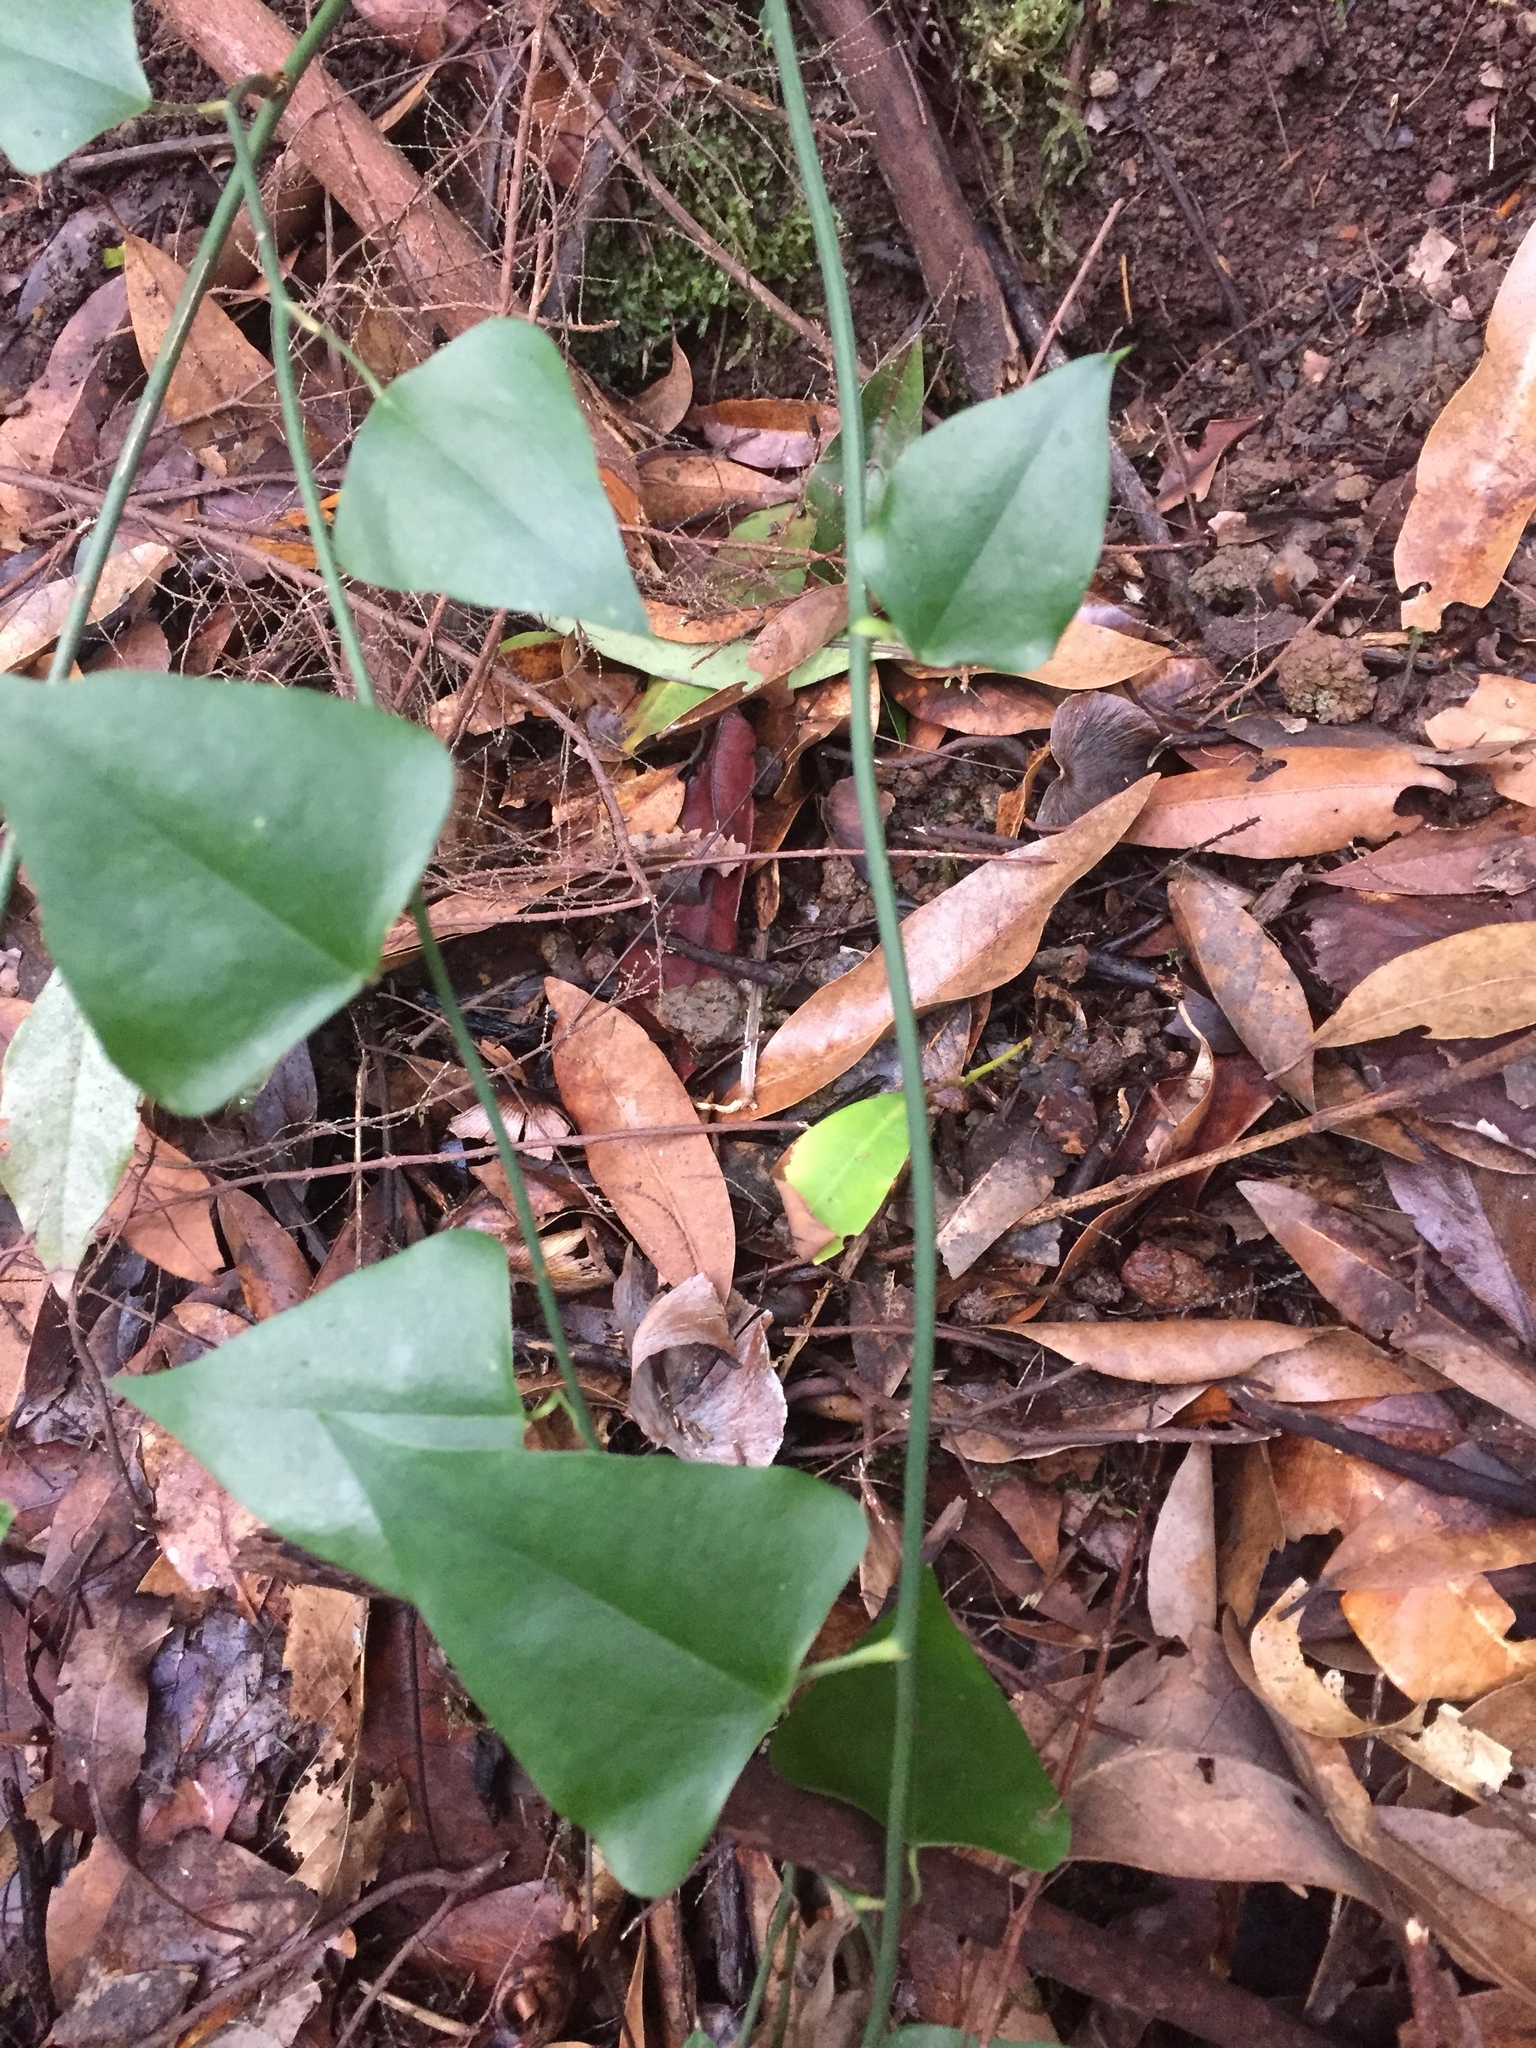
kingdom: Plantae
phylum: Tracheophyta
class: Liliopsida
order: Liliales
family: Smilacaceae
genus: Smilax
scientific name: Smilax canariensis
